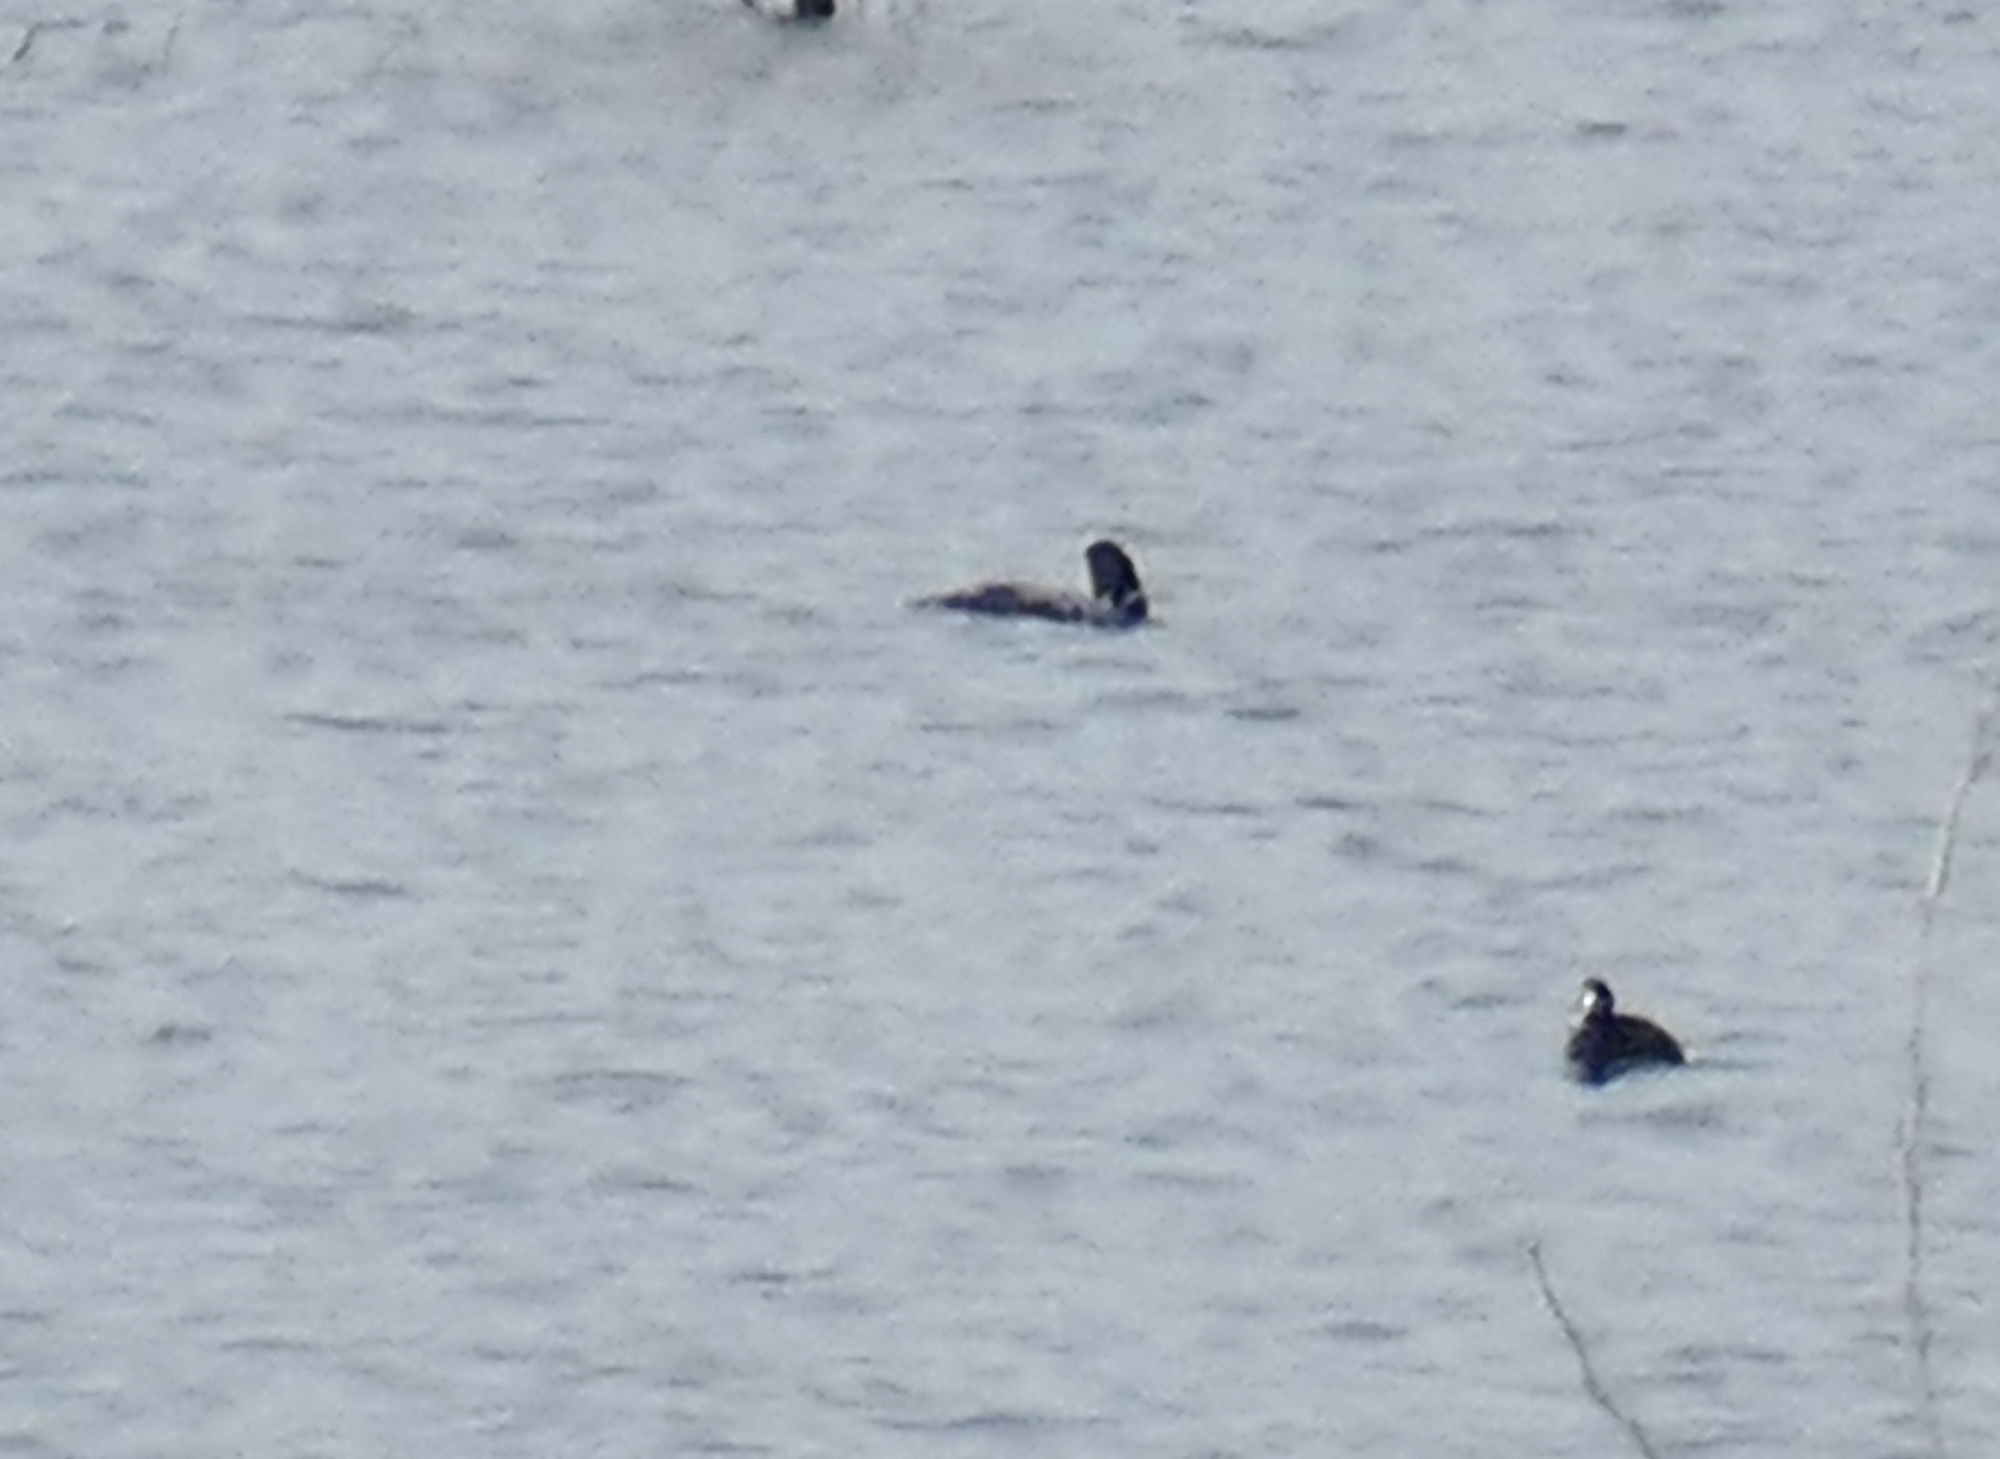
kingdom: Animalia
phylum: Chordata
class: Aves
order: Gaviiformes
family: Gaviidae
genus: Gavia
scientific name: Gavia immer
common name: Common loon
